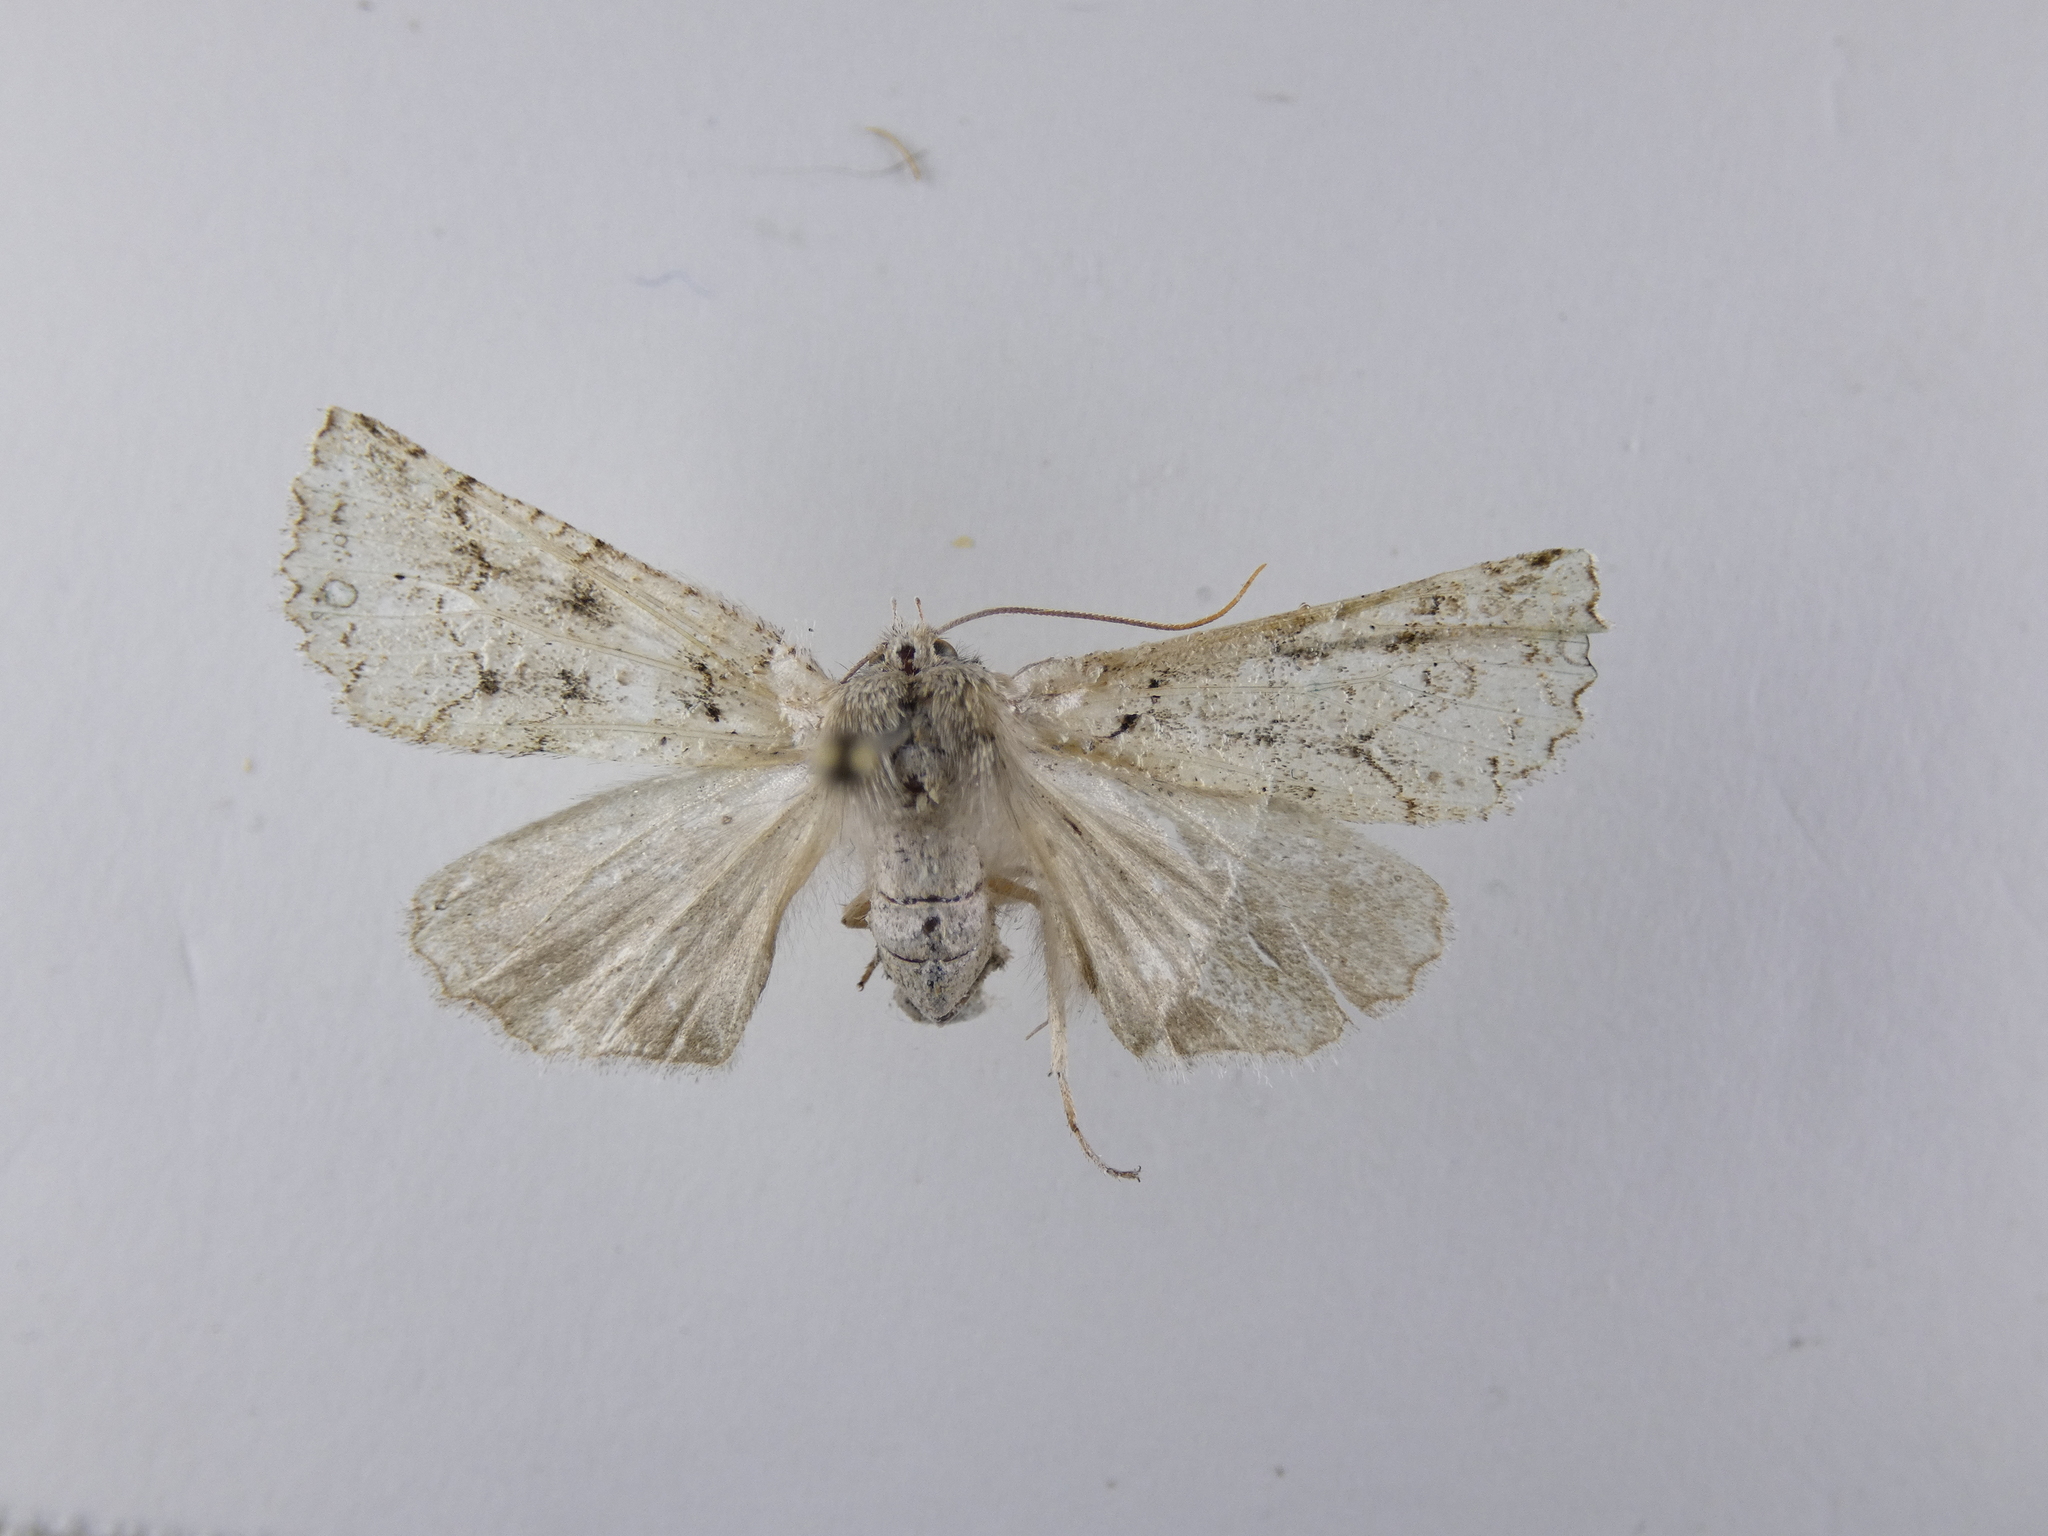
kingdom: Animalia
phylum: Arthropoda
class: Insecta
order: Lepidoptera
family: Geometridae
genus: Declana
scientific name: Declana floccosa
